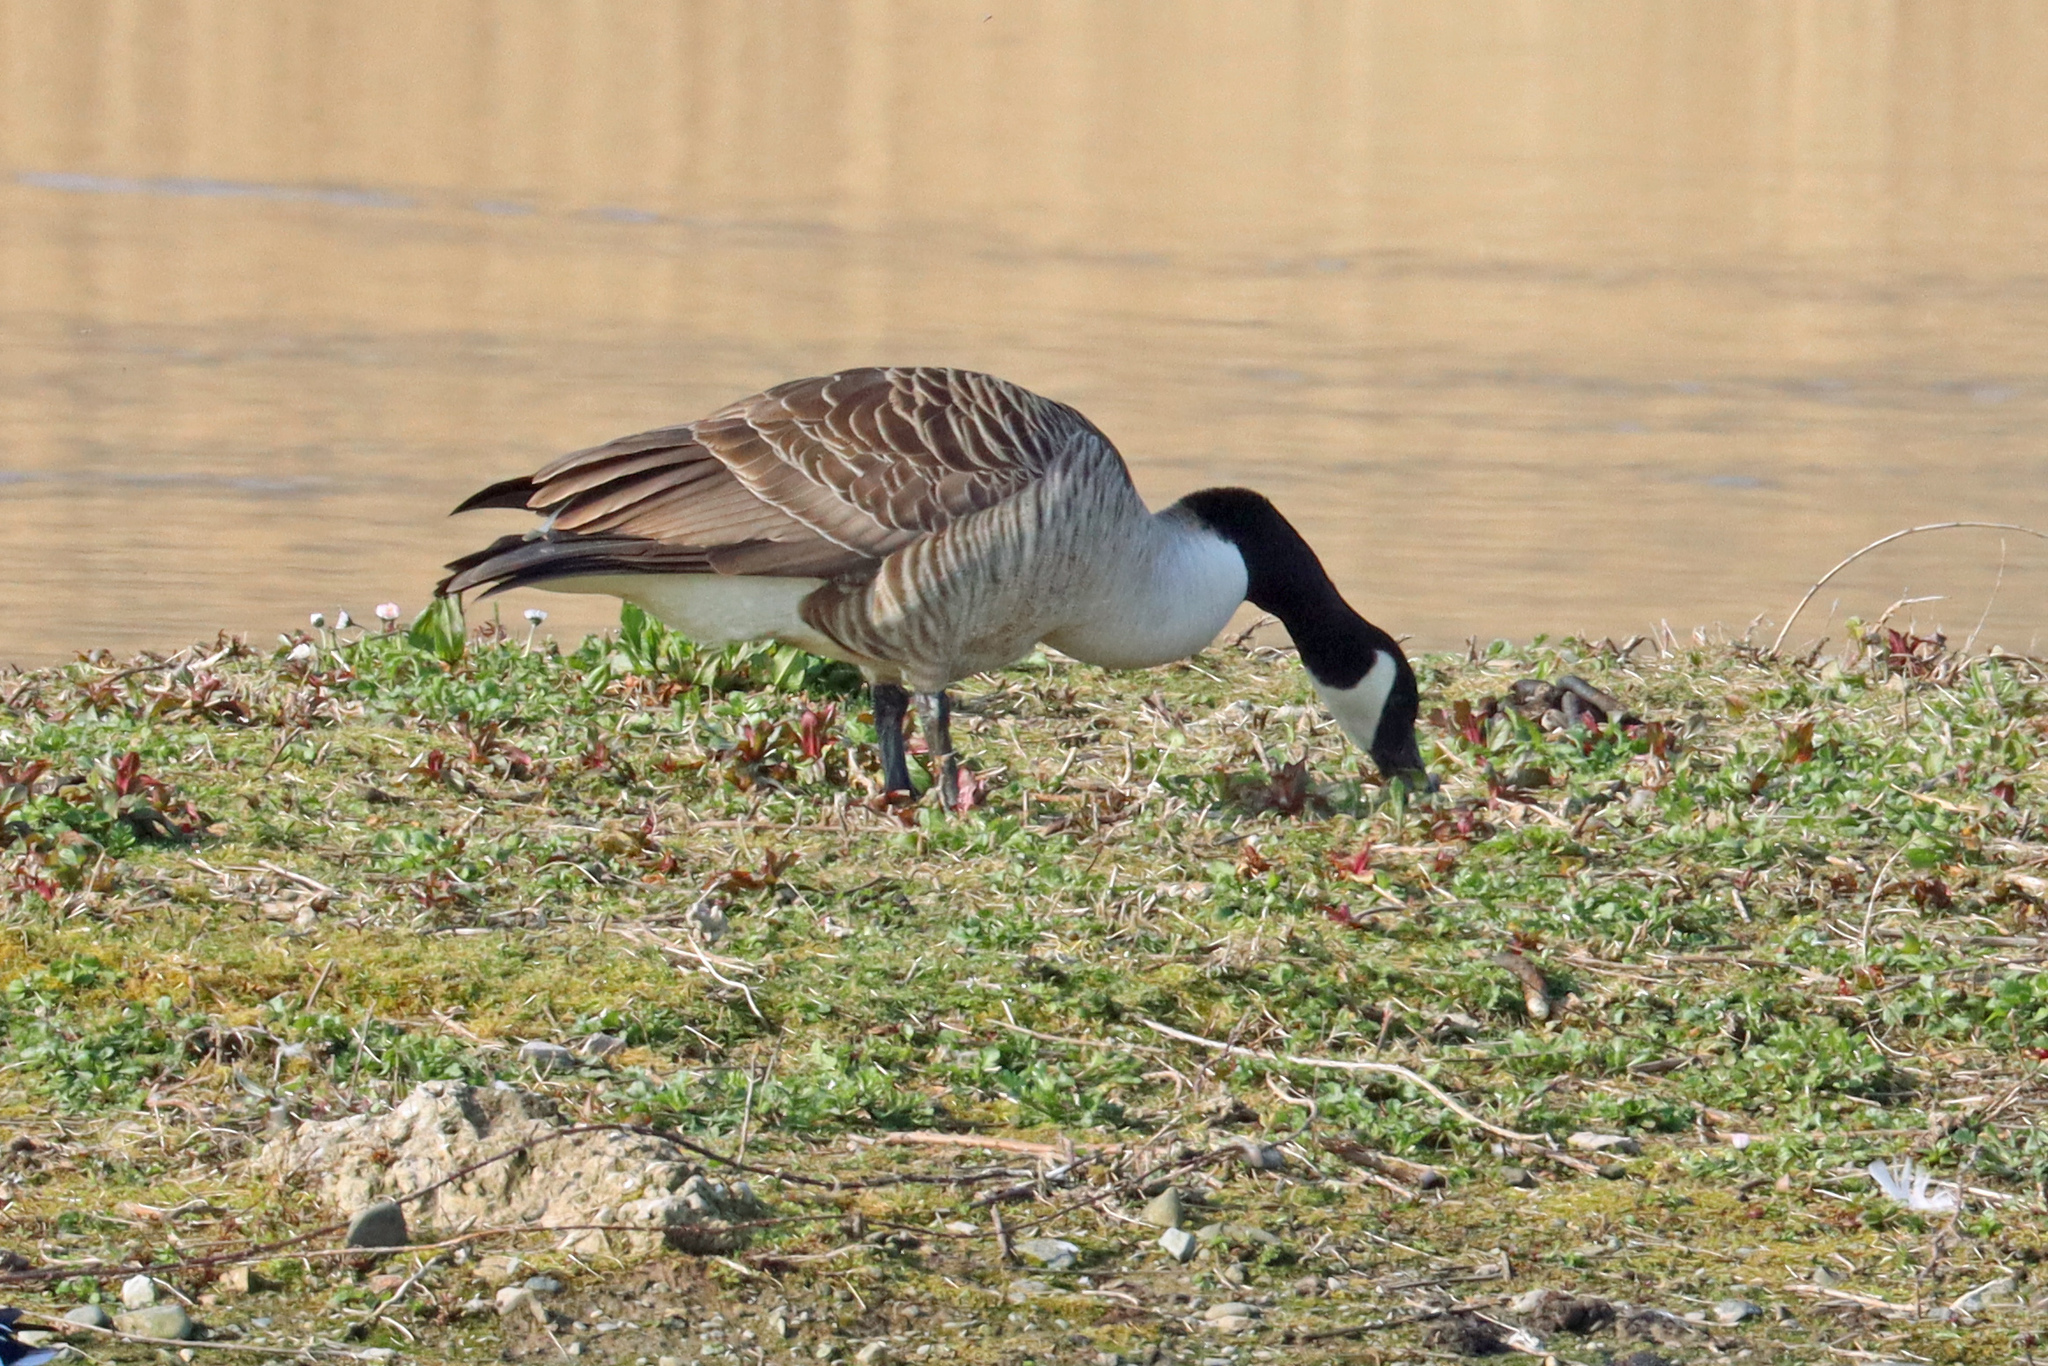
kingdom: Animalia
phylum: Chordata
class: Aves
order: Anseriformes
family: Anatidae
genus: Branta
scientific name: Branta canadensis
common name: Canada goose
